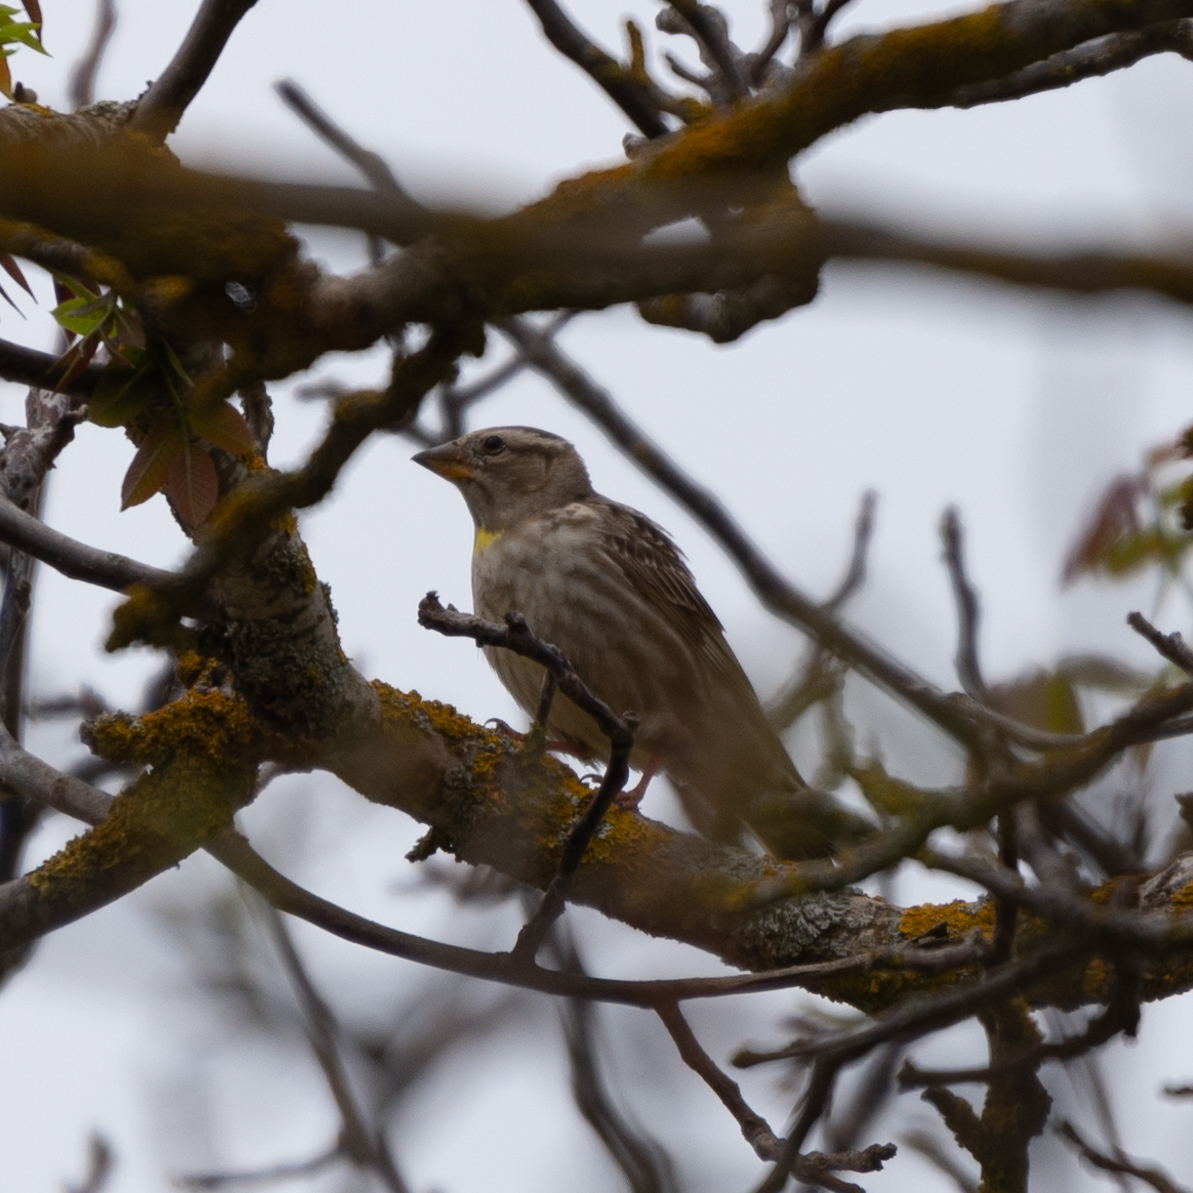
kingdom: Animalia
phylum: Chordata
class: Aves
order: Passeriformes
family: Passeridae
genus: Petronia
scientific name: Petronia petronia
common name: Rock sparrow
